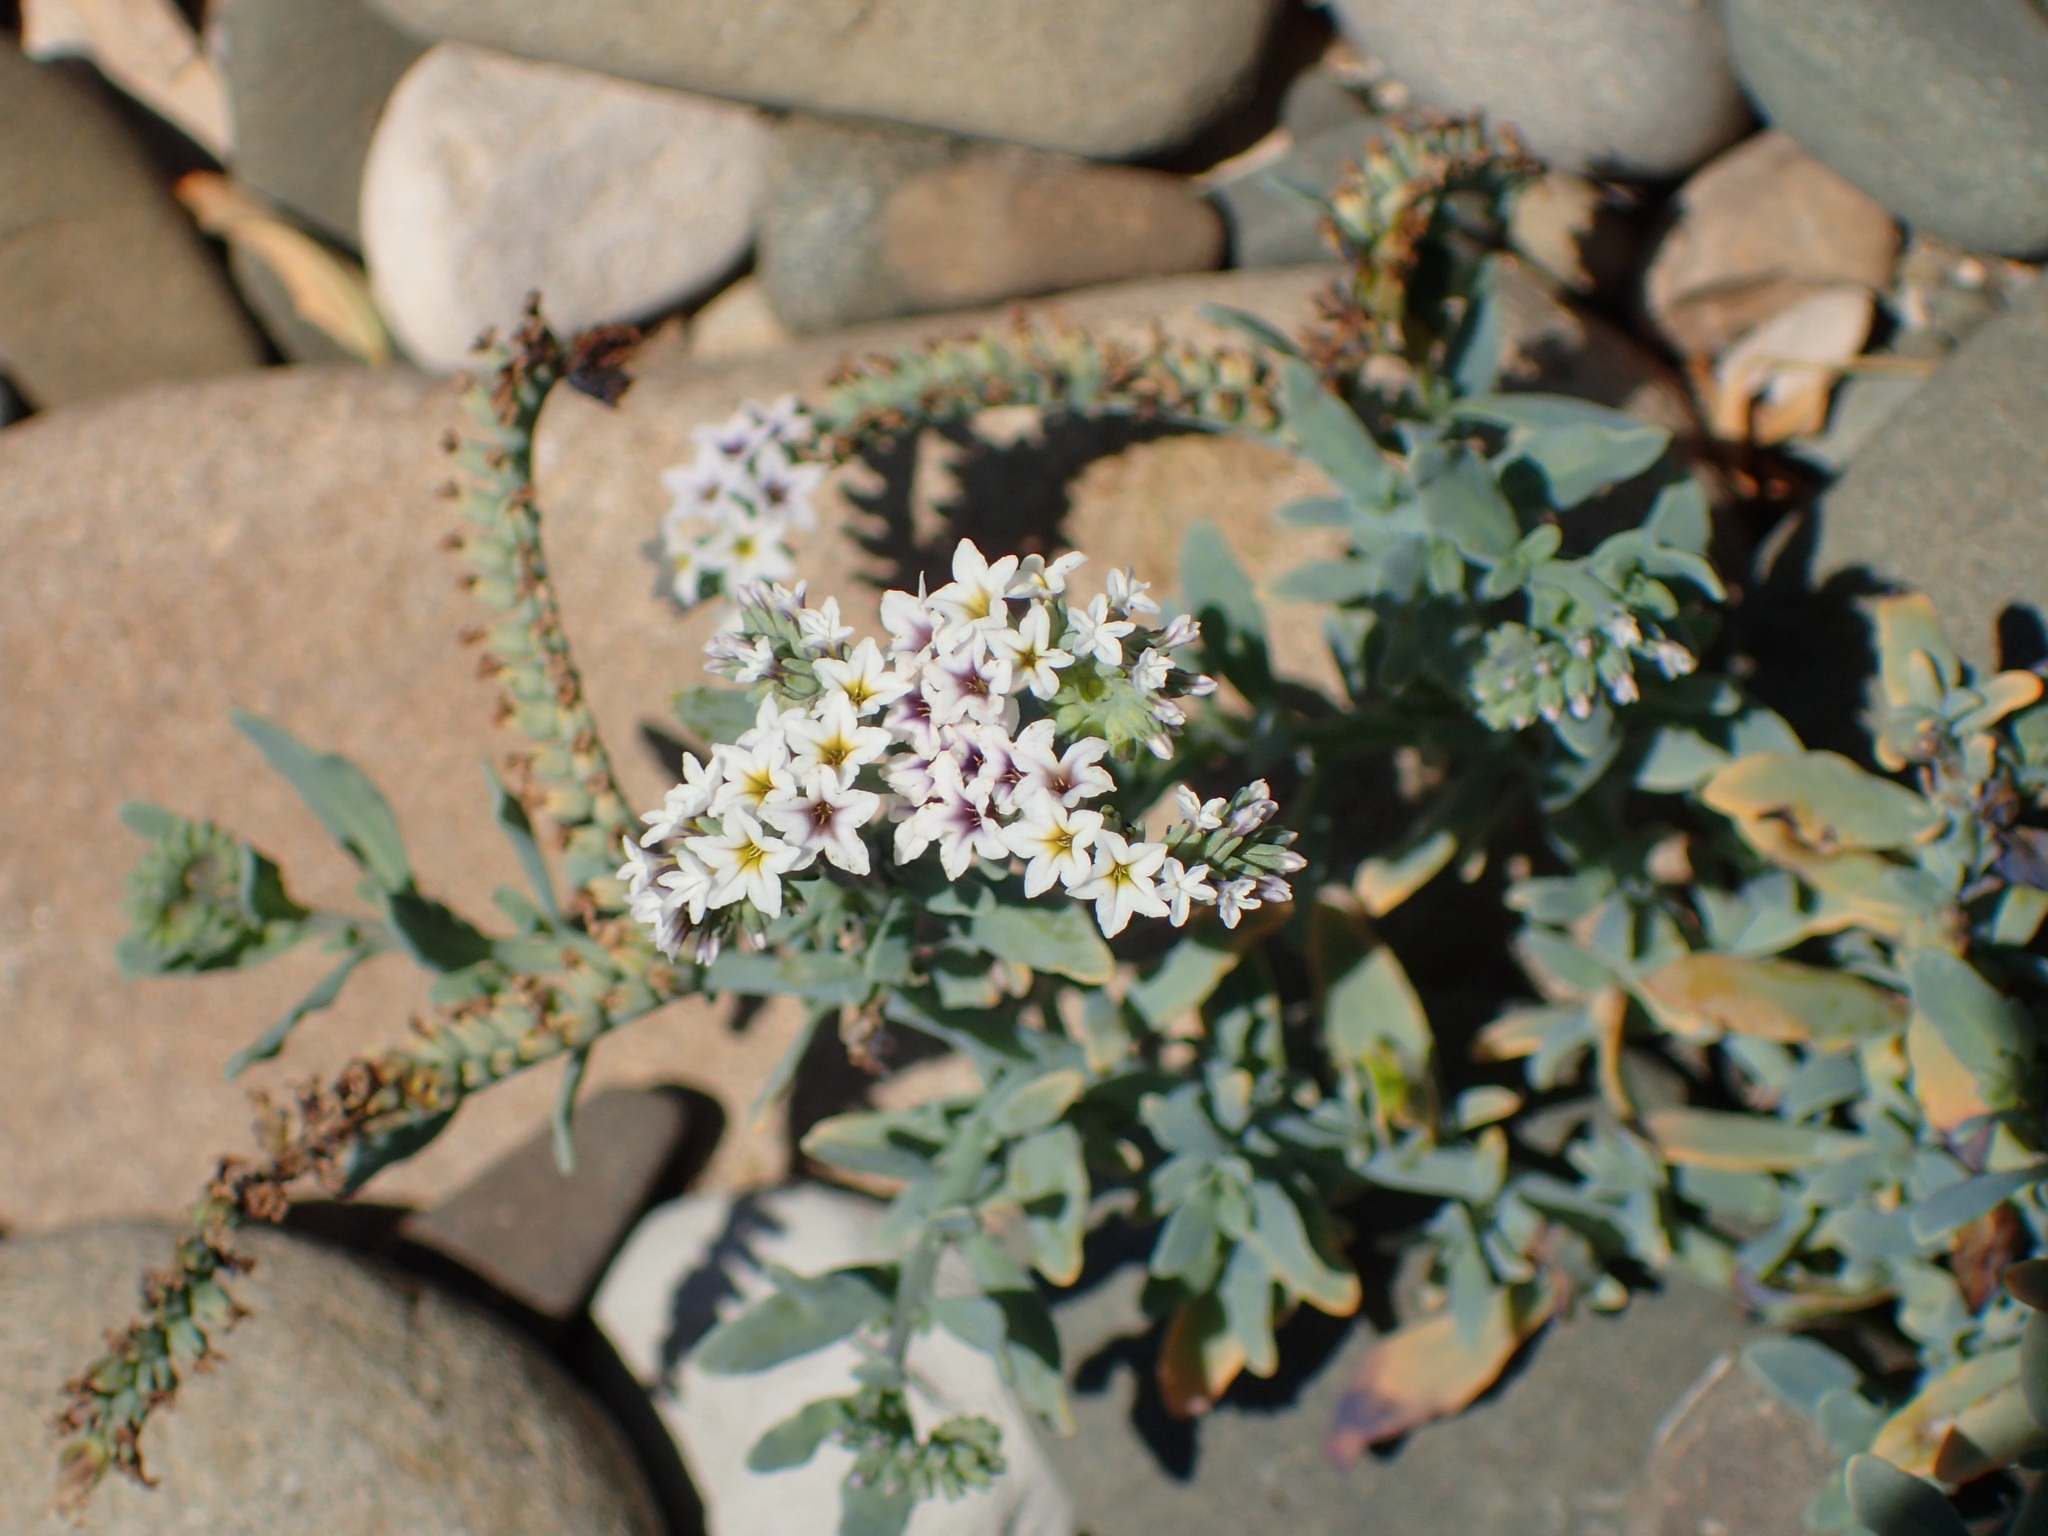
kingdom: Plantae
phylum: Tracheophyta
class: Magnoliopsida
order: Boraginales
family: Heliotropiaceae
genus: Heliotropium
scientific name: Heliotropium curassavicum
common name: Seaside heliotrope
